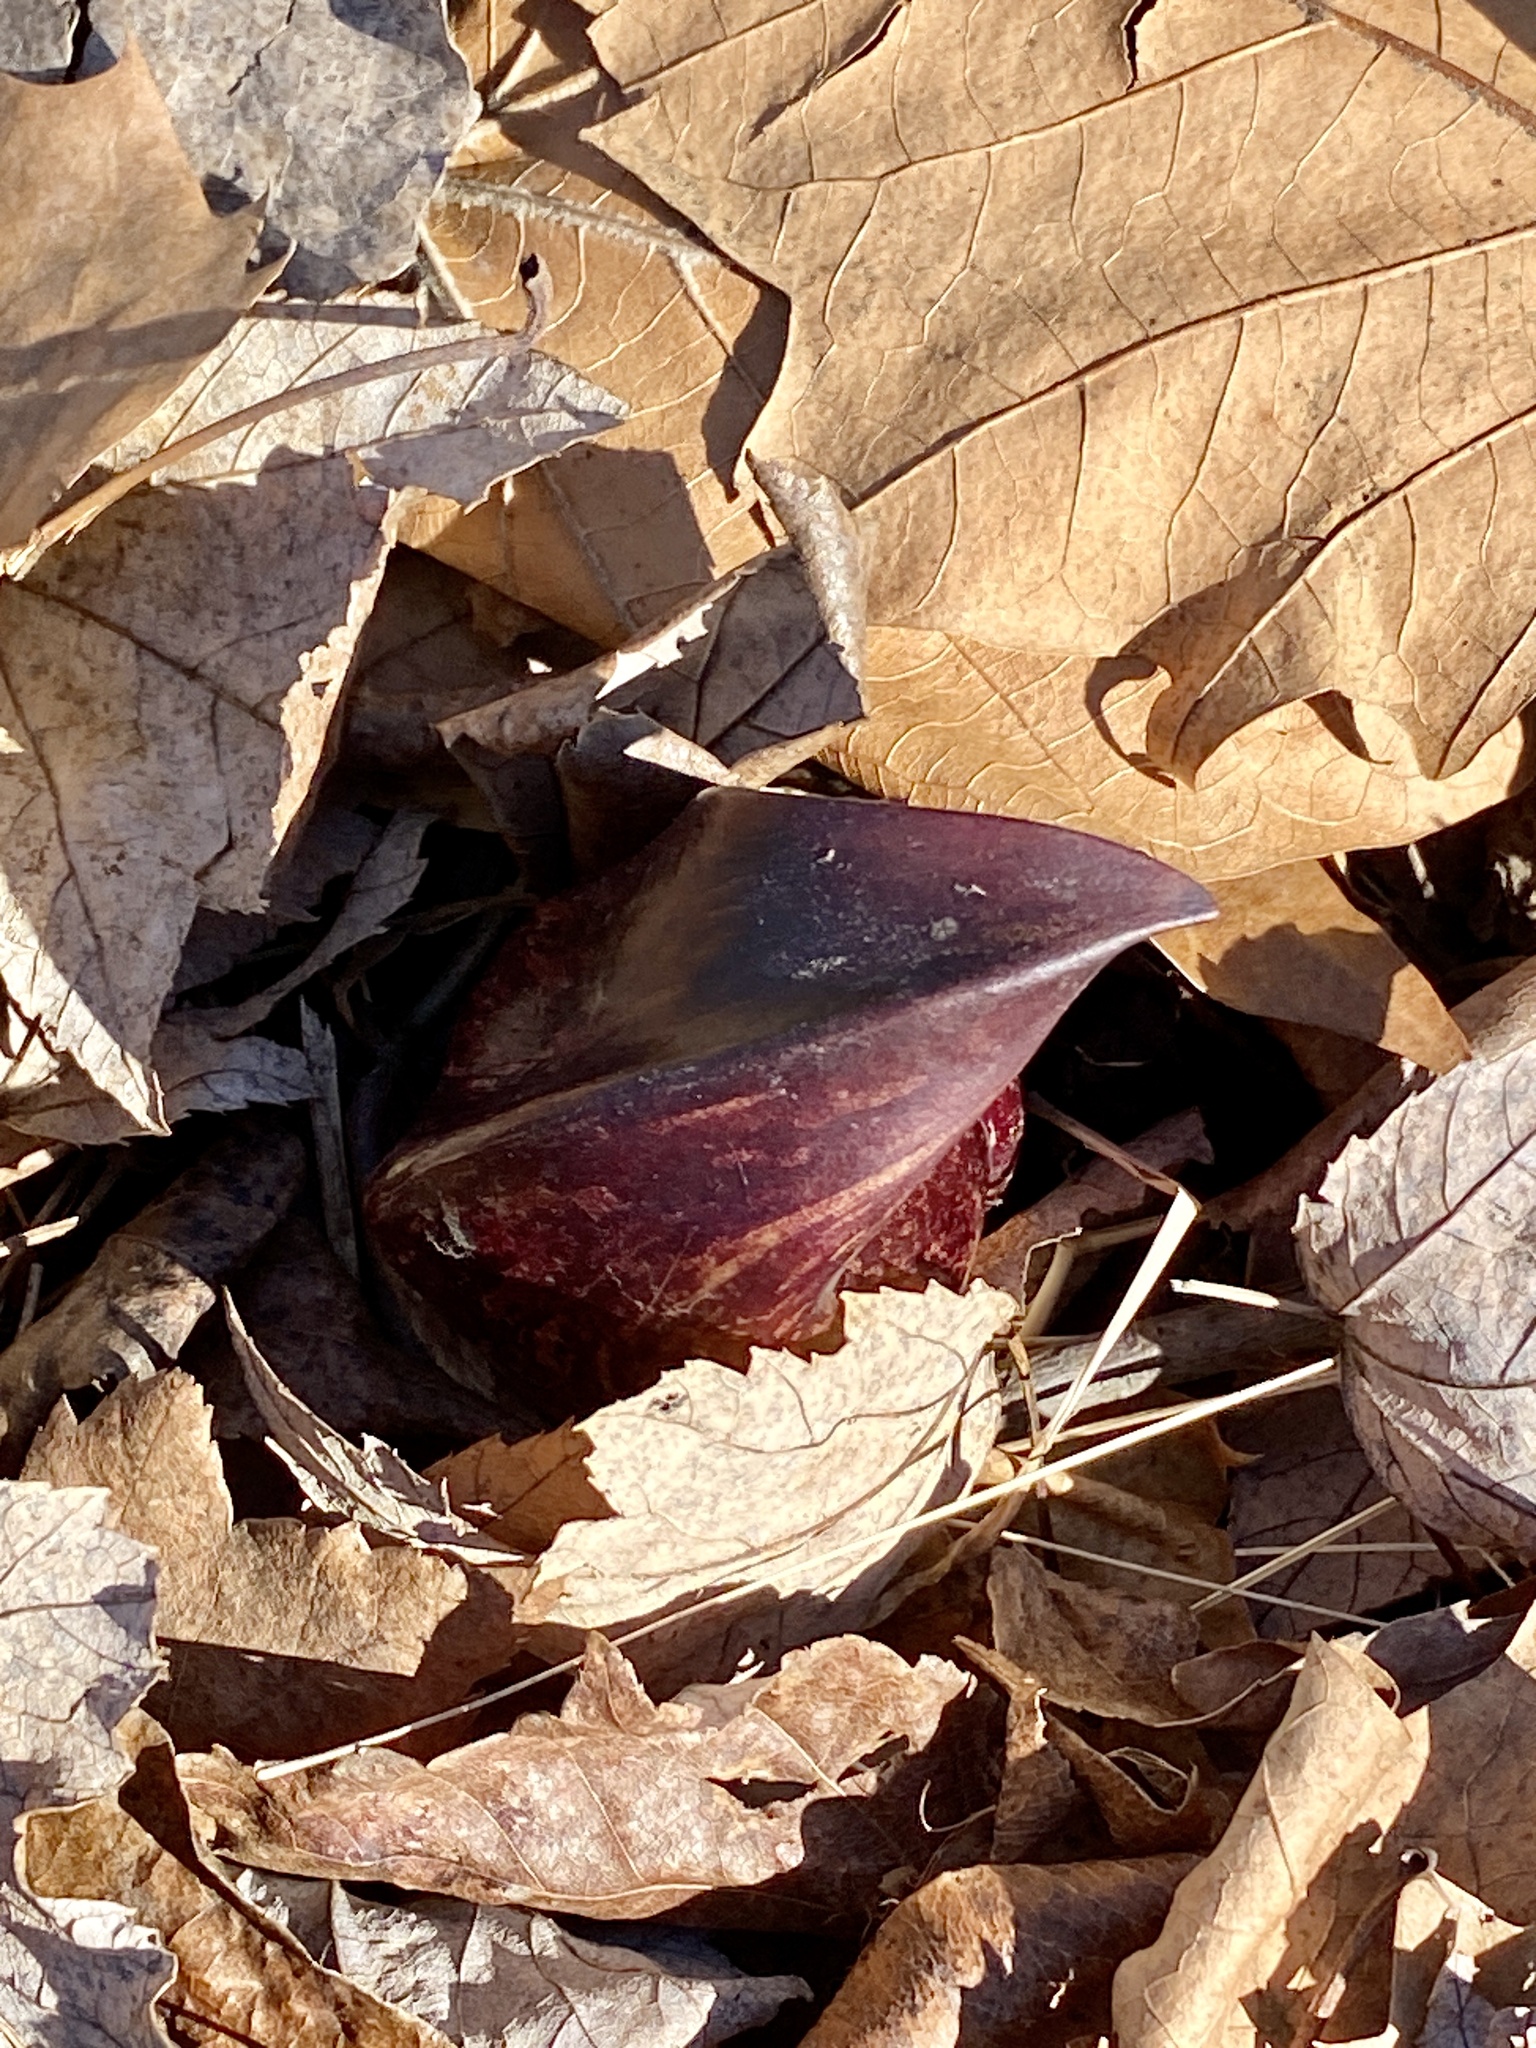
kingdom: Plantae
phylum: Tracheophyta
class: Liliopsida
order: Alismatales
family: Araceae
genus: Symplocarpus
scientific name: Symplocarpus foetidus
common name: Eastern skunk cabbage
